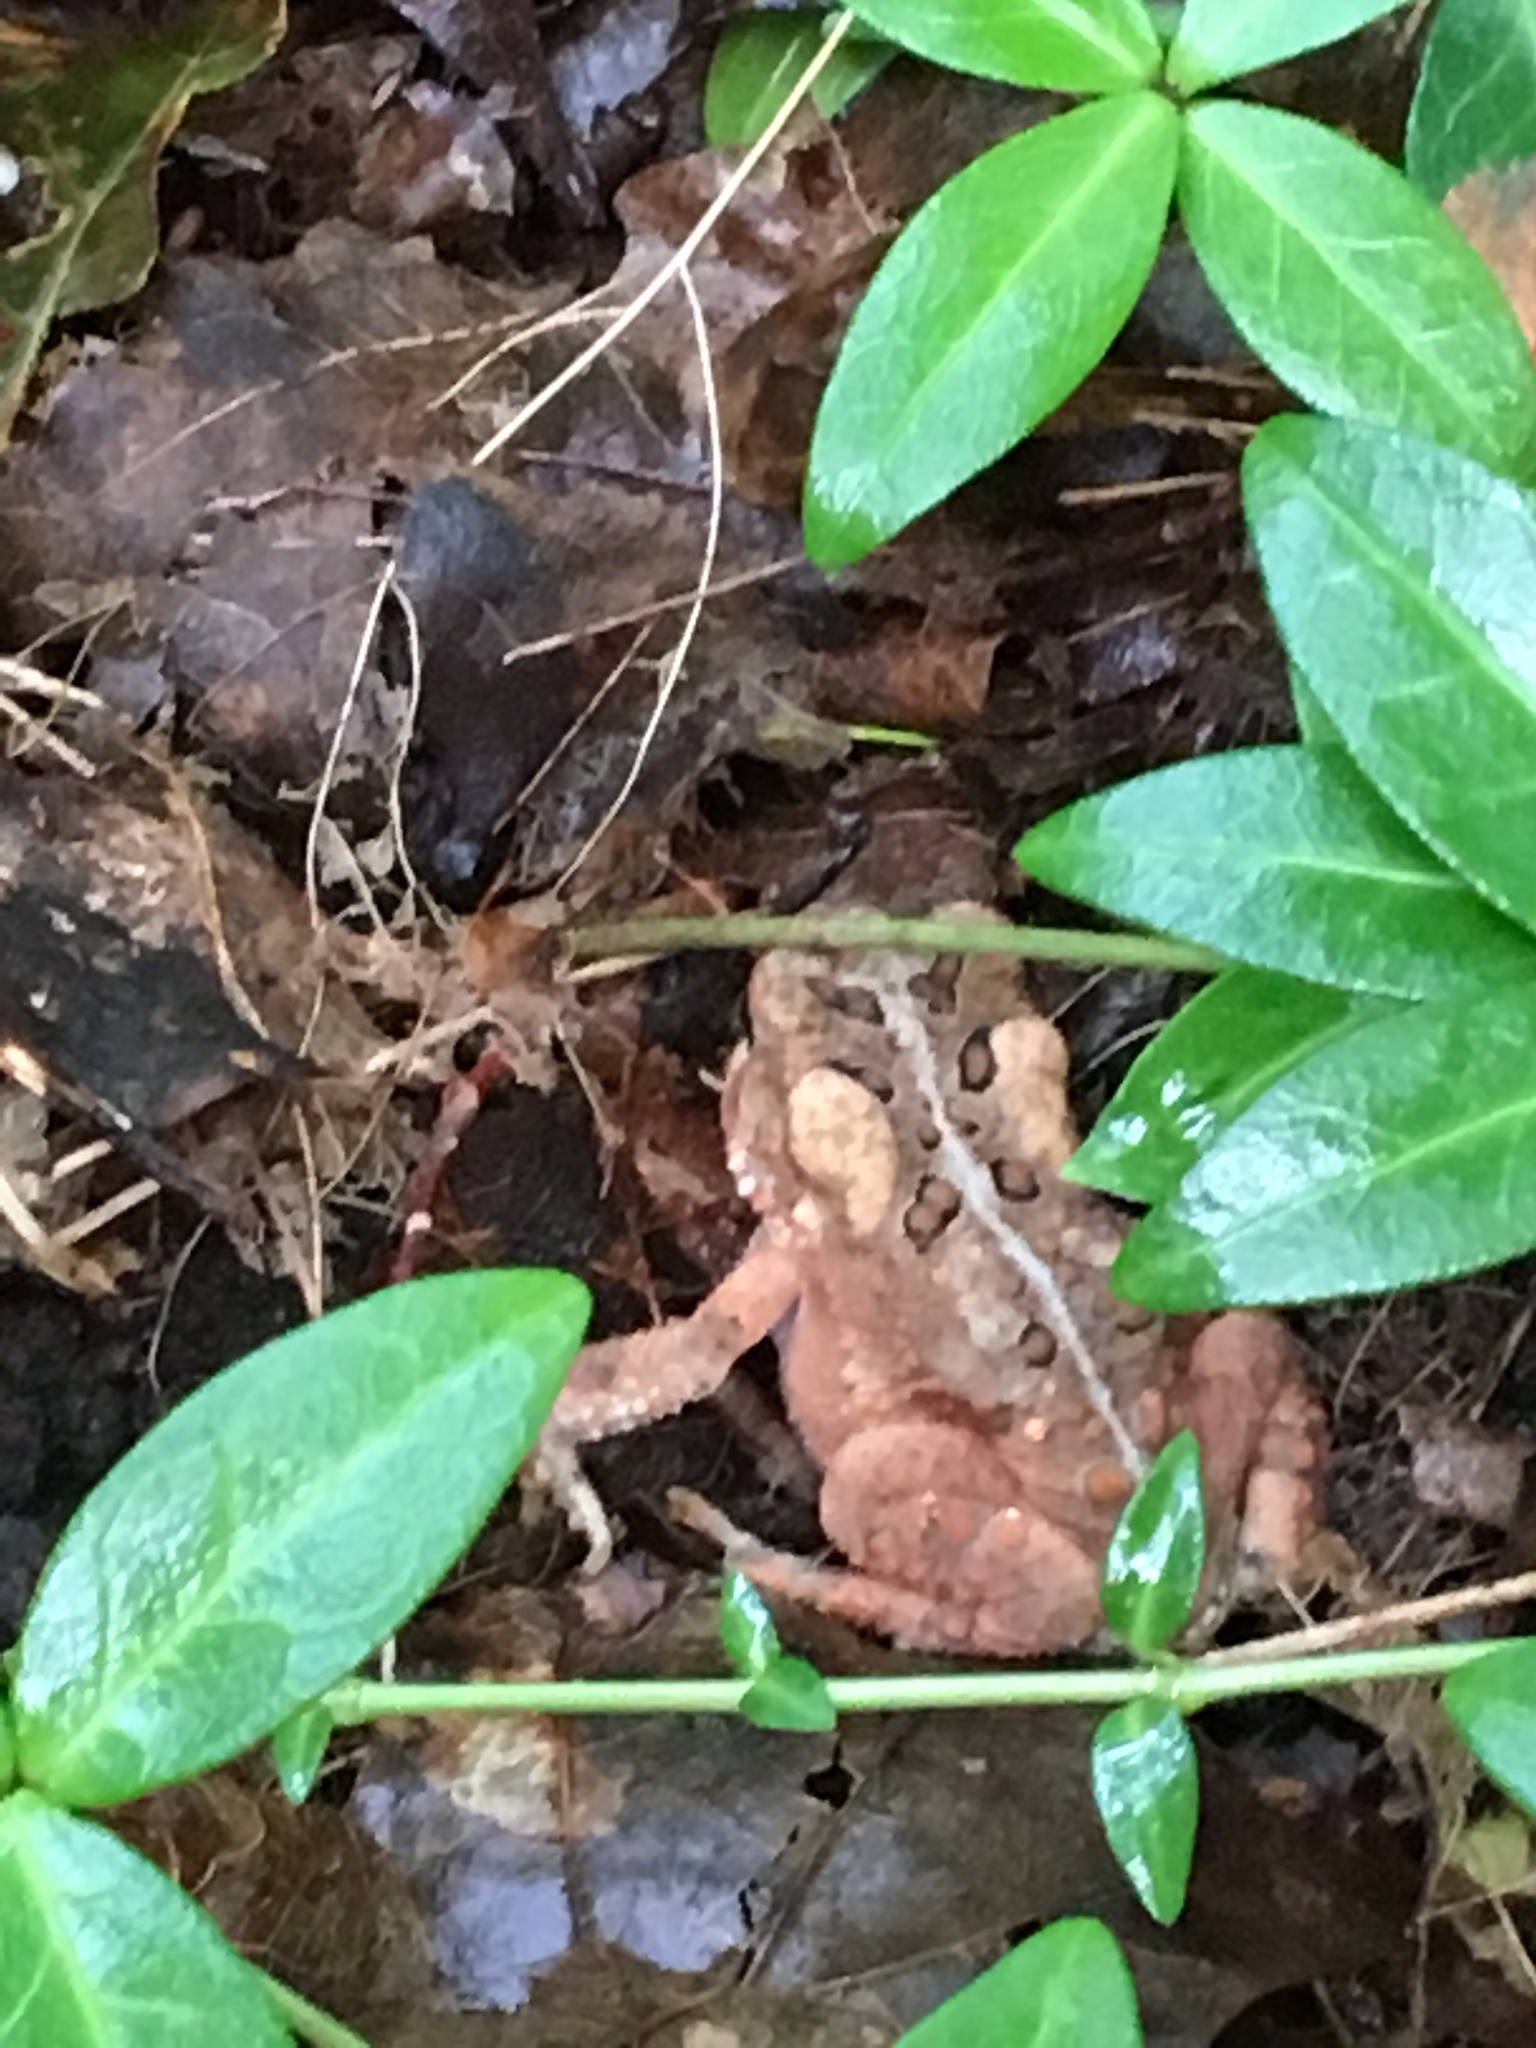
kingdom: Animalia
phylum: Chordata
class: Amphibia
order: Anura
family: Bufonidae
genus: Anaxyrus
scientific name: Anaxyrus americanus
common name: American toad
